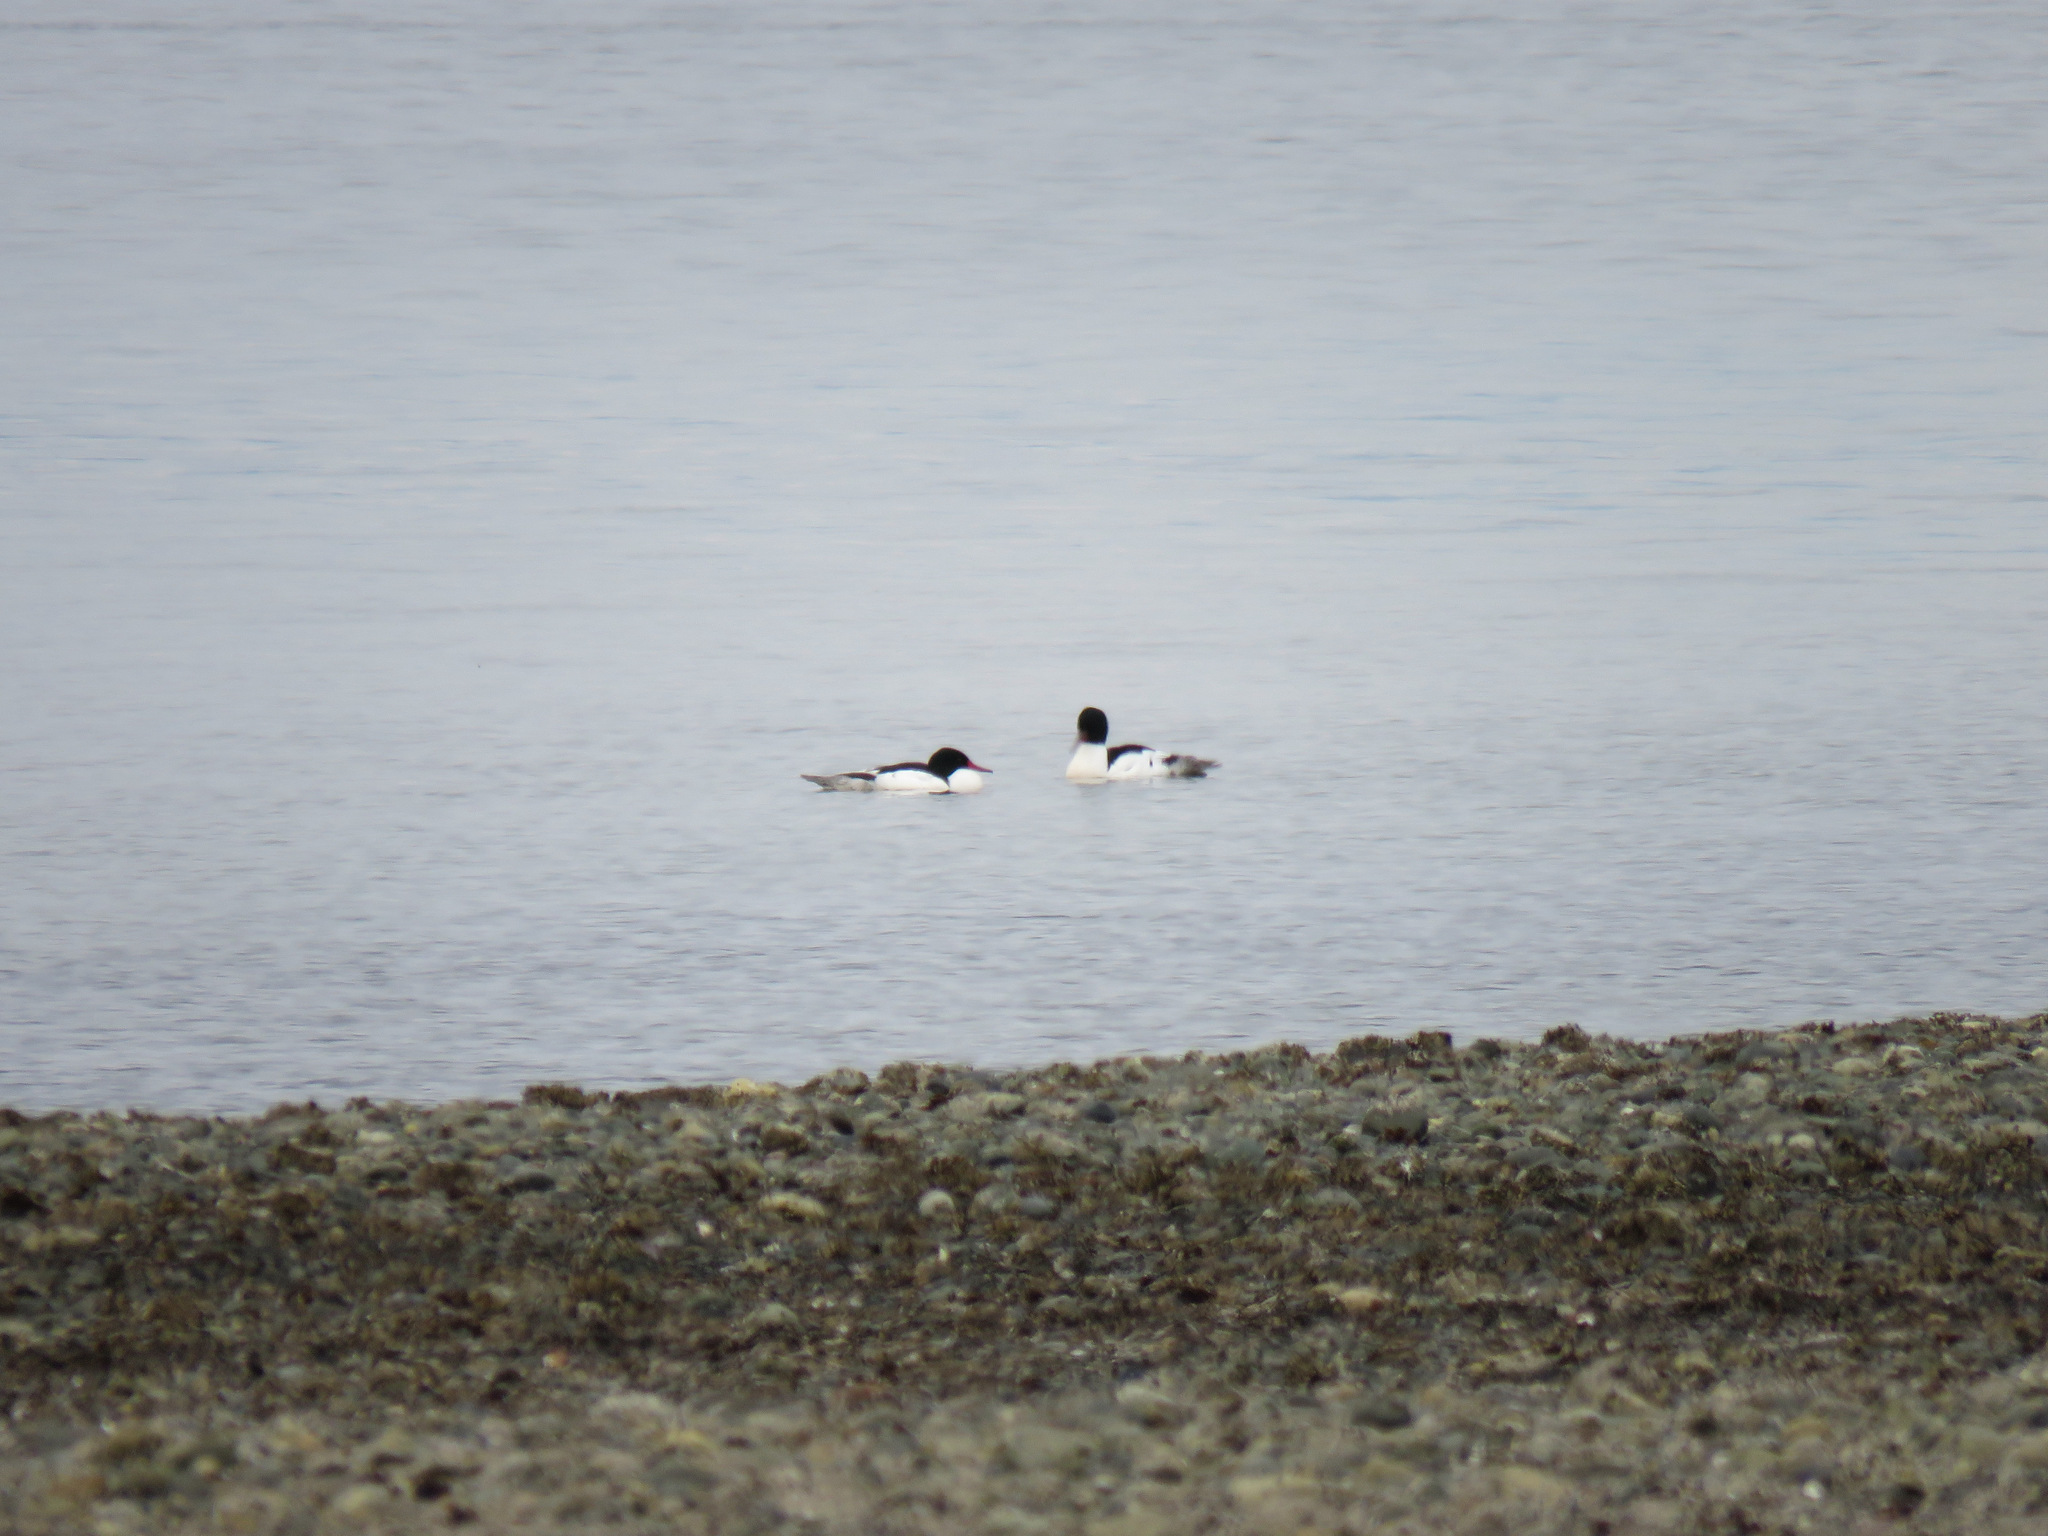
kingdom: Animalia
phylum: Chordata
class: Aves
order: Anseriformes
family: Anatidae
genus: Mergus
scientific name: Mergus merganser
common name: Common merganser
